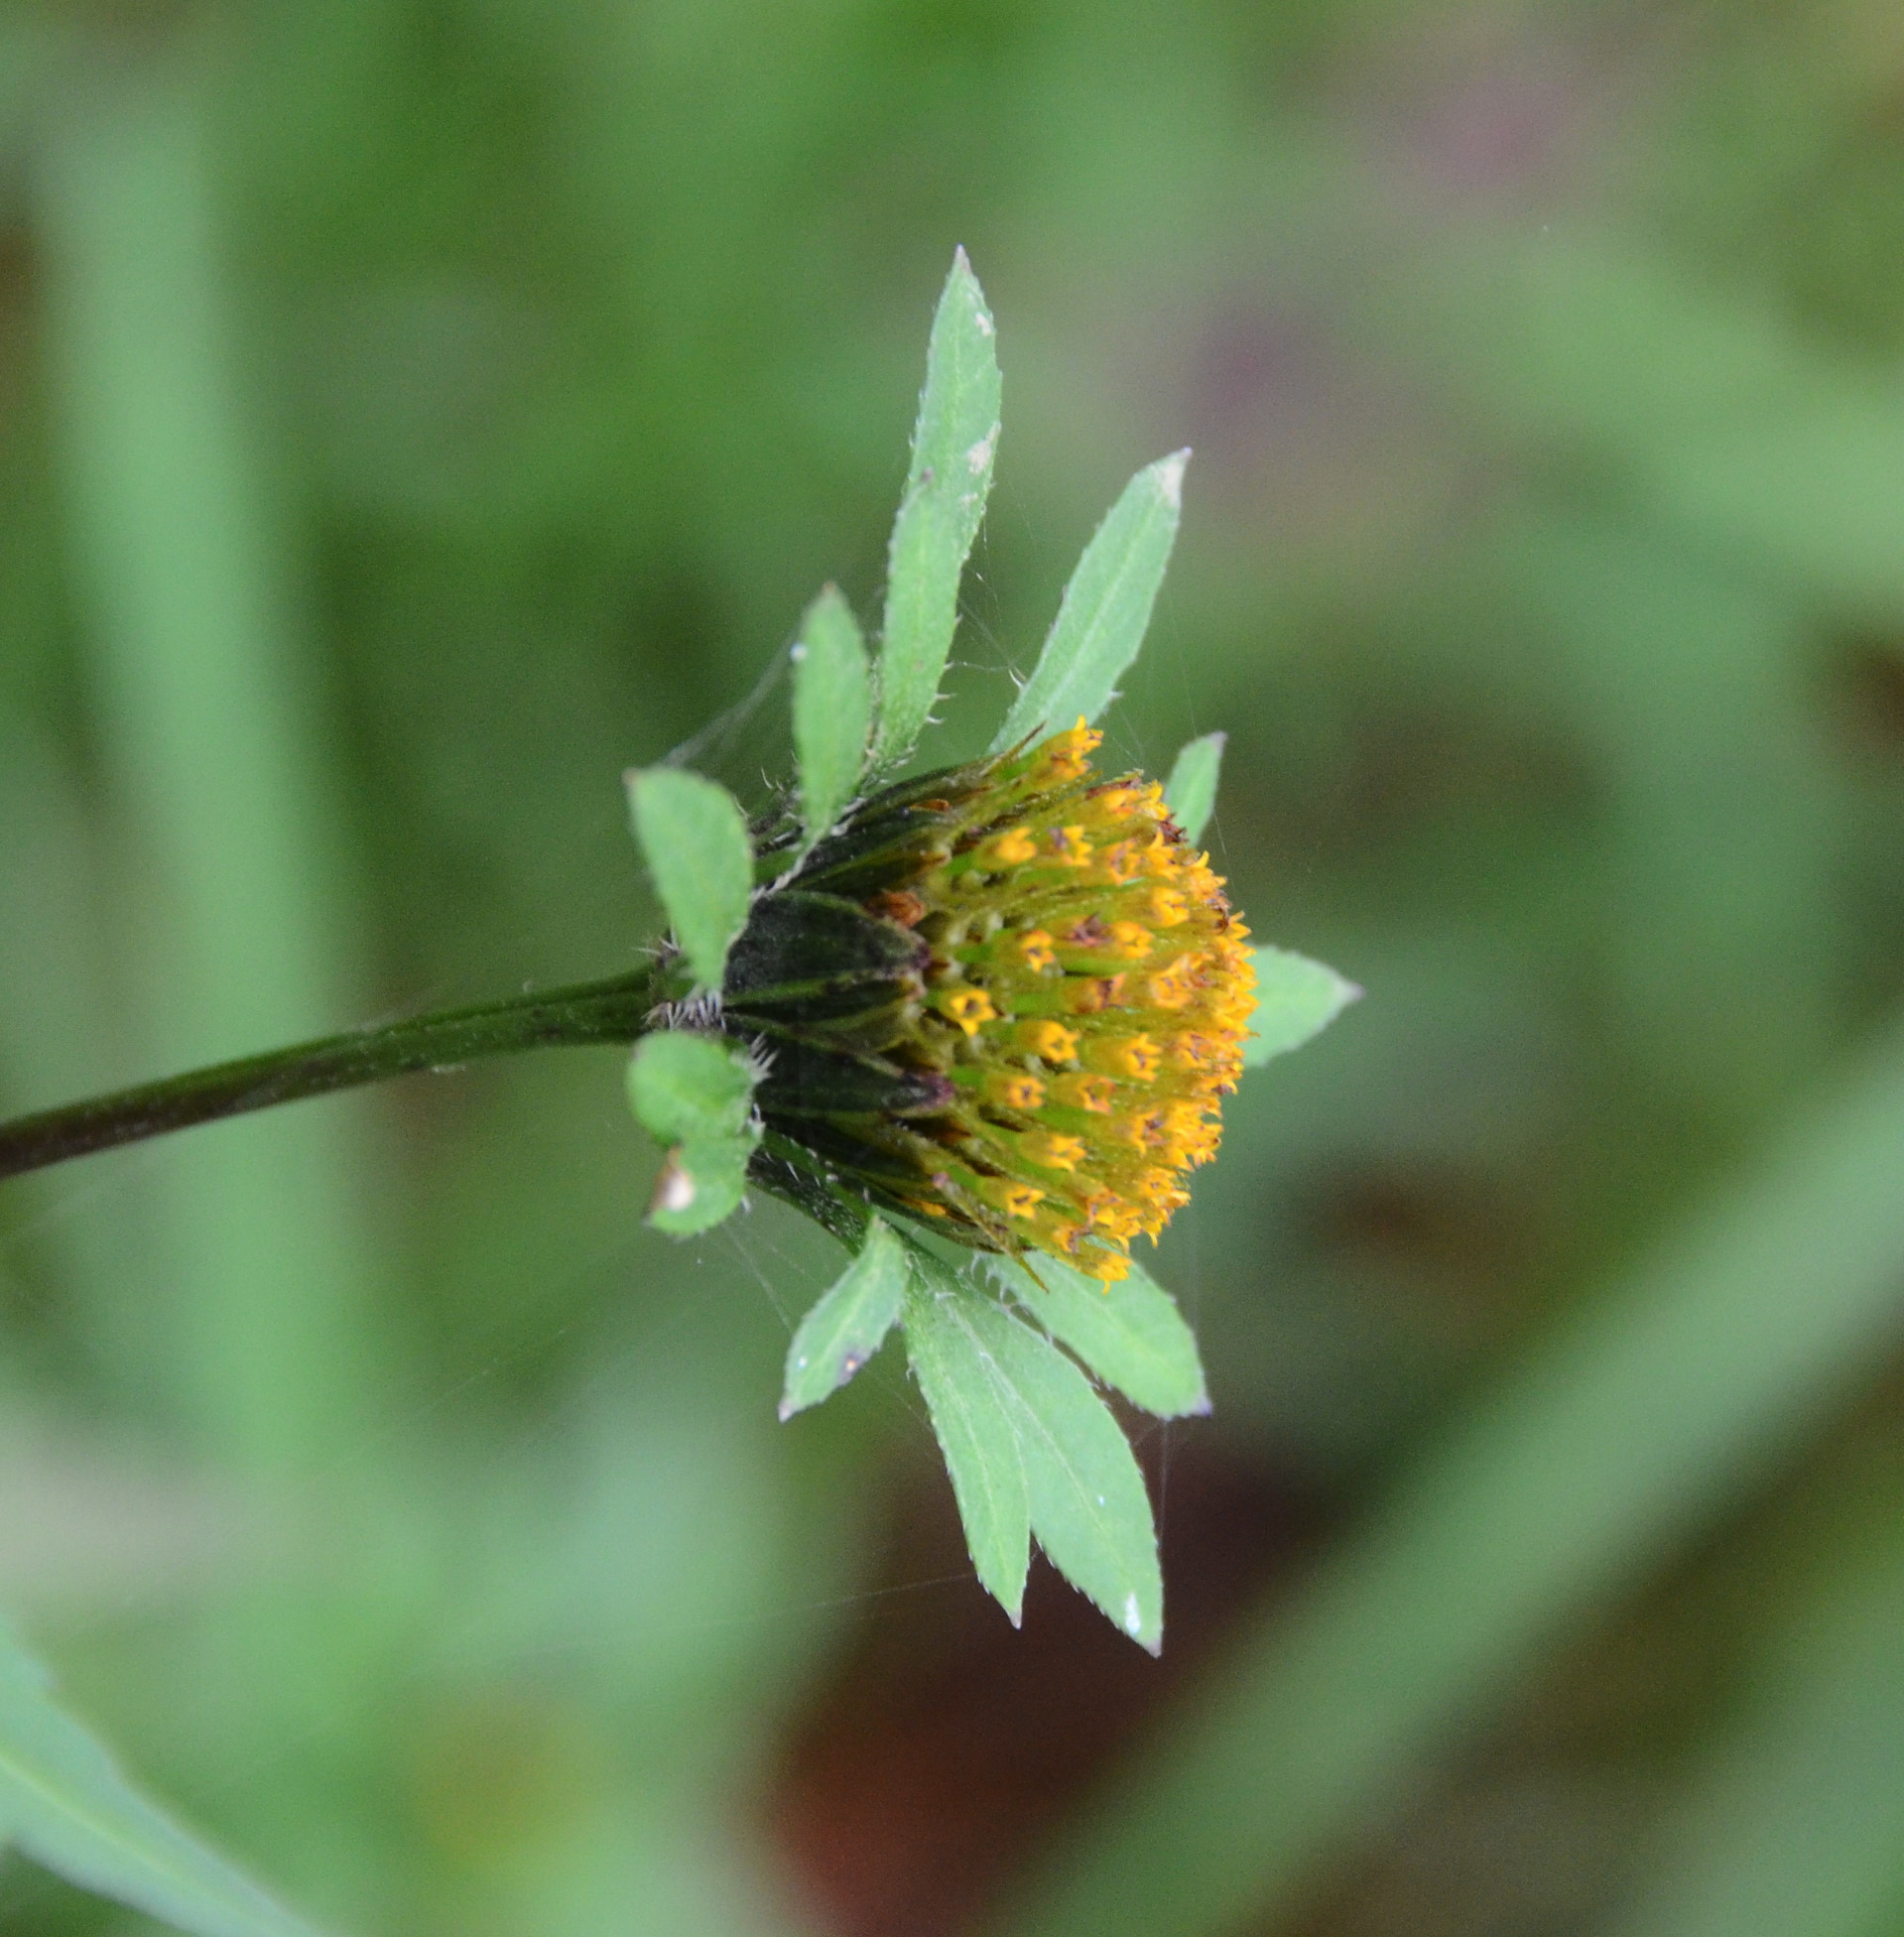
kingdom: Plantae
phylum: Tracheophyta
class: Magnoliopsida
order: Asterales
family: Asteraceae
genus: Bidens
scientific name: Bidens frondosa
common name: Beggarticks
